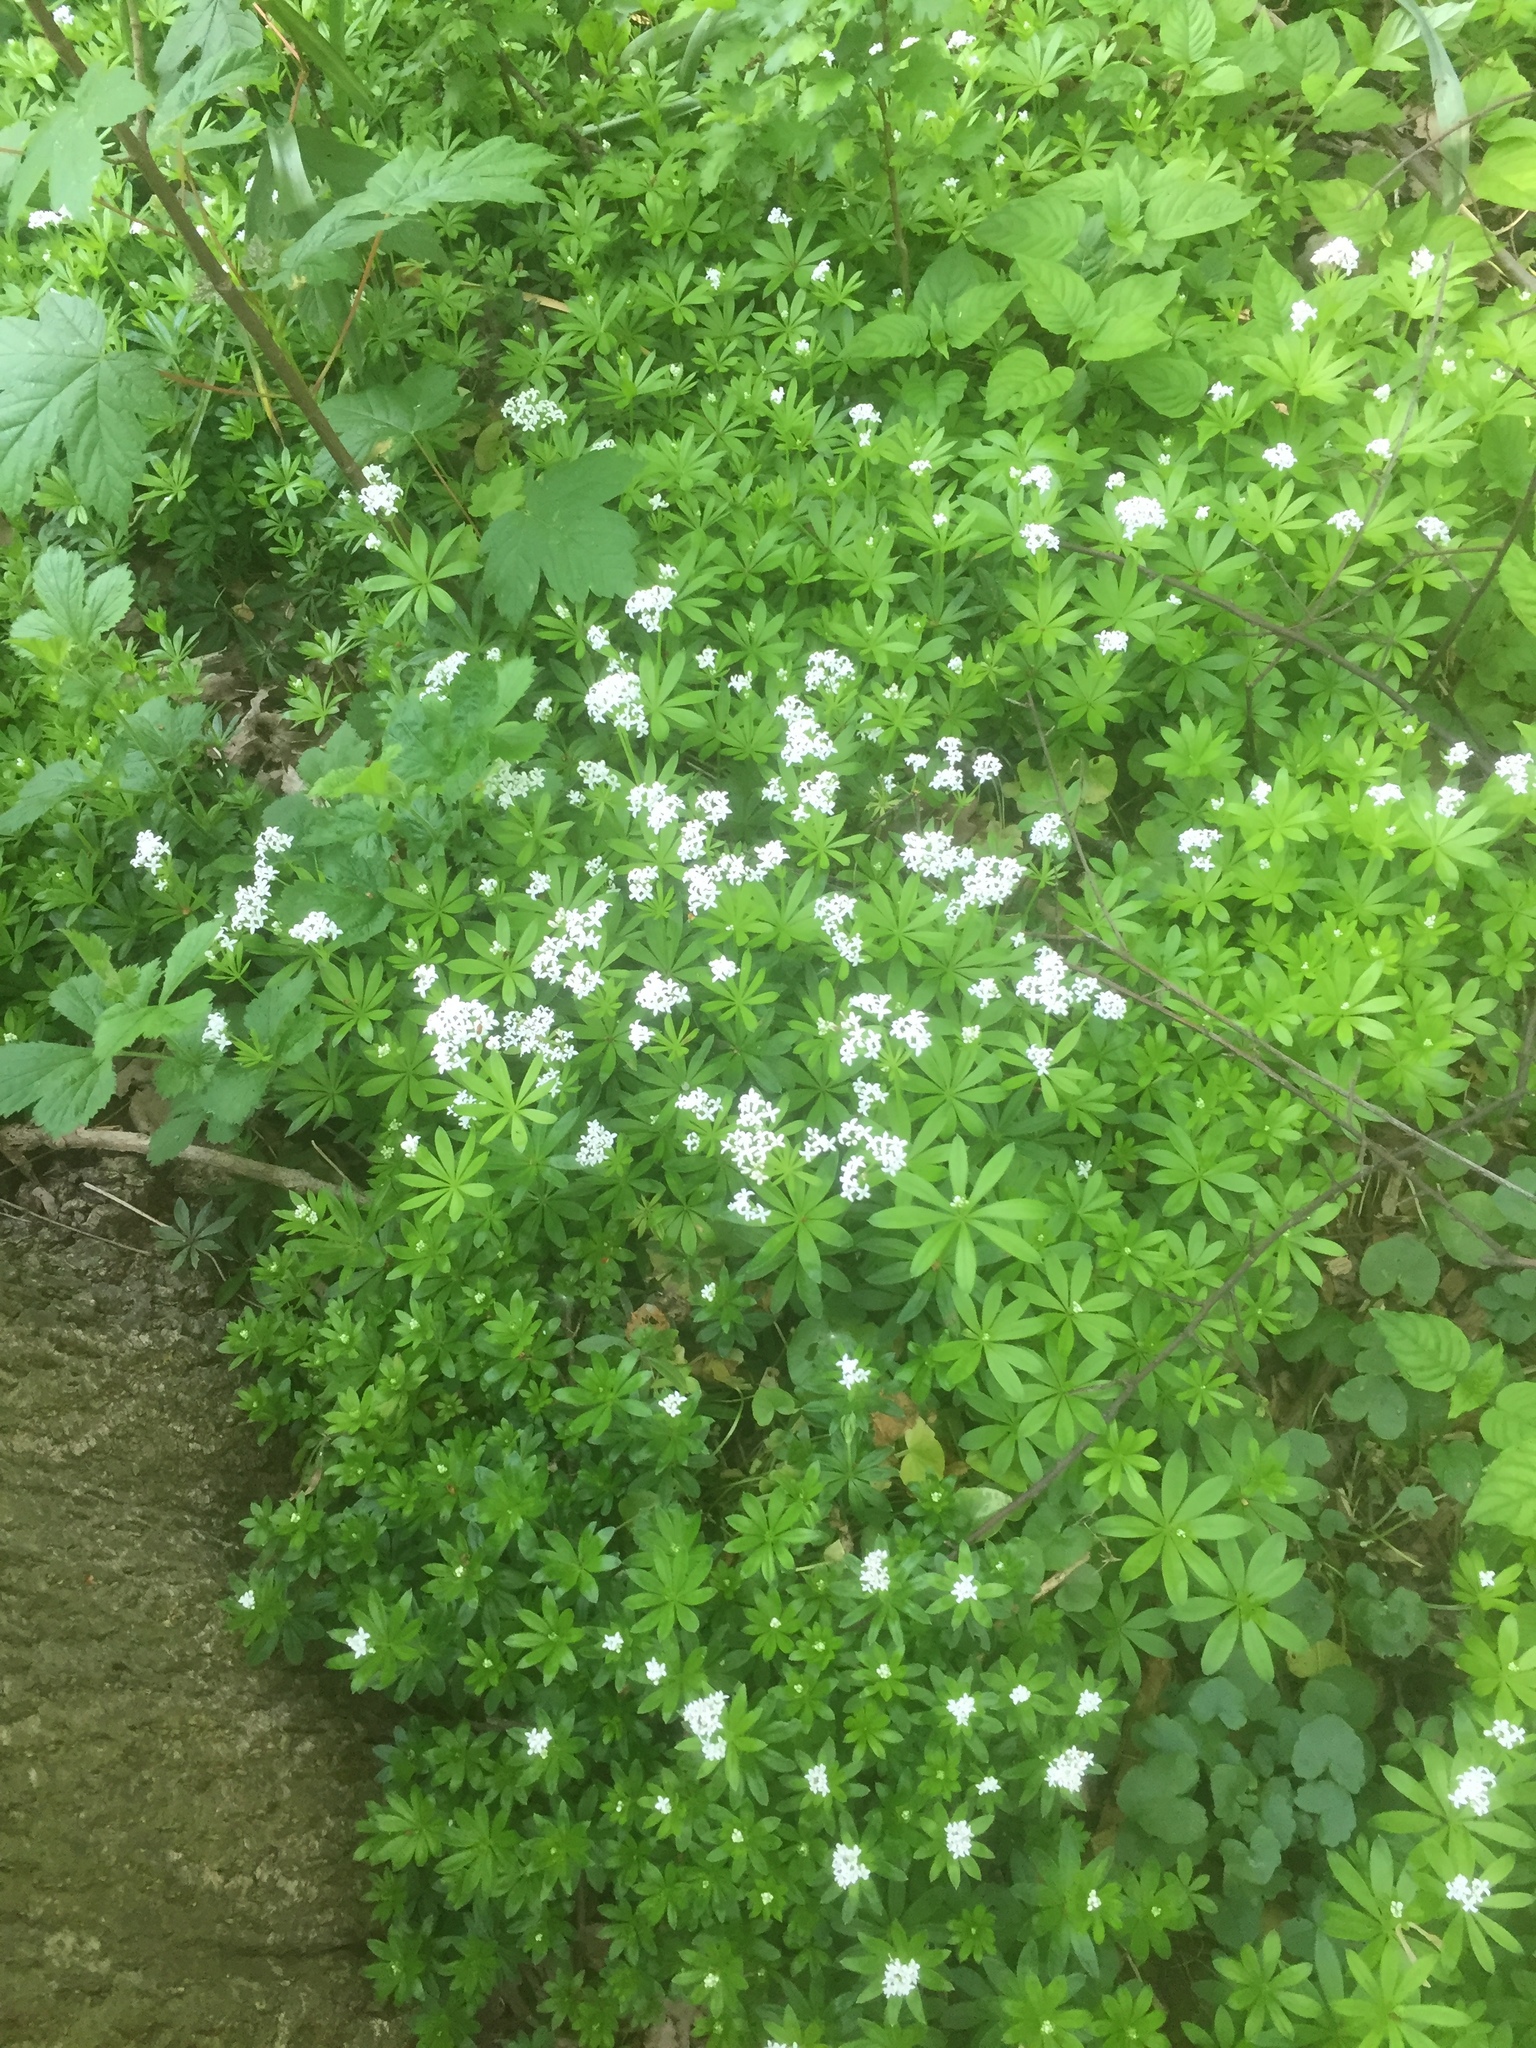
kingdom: Plantae
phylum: Tracheophyta
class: Magnoliopsida
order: Gentianales
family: Rubiaceae
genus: Galium
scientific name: Galium odoratum
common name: Sweet woodruff
